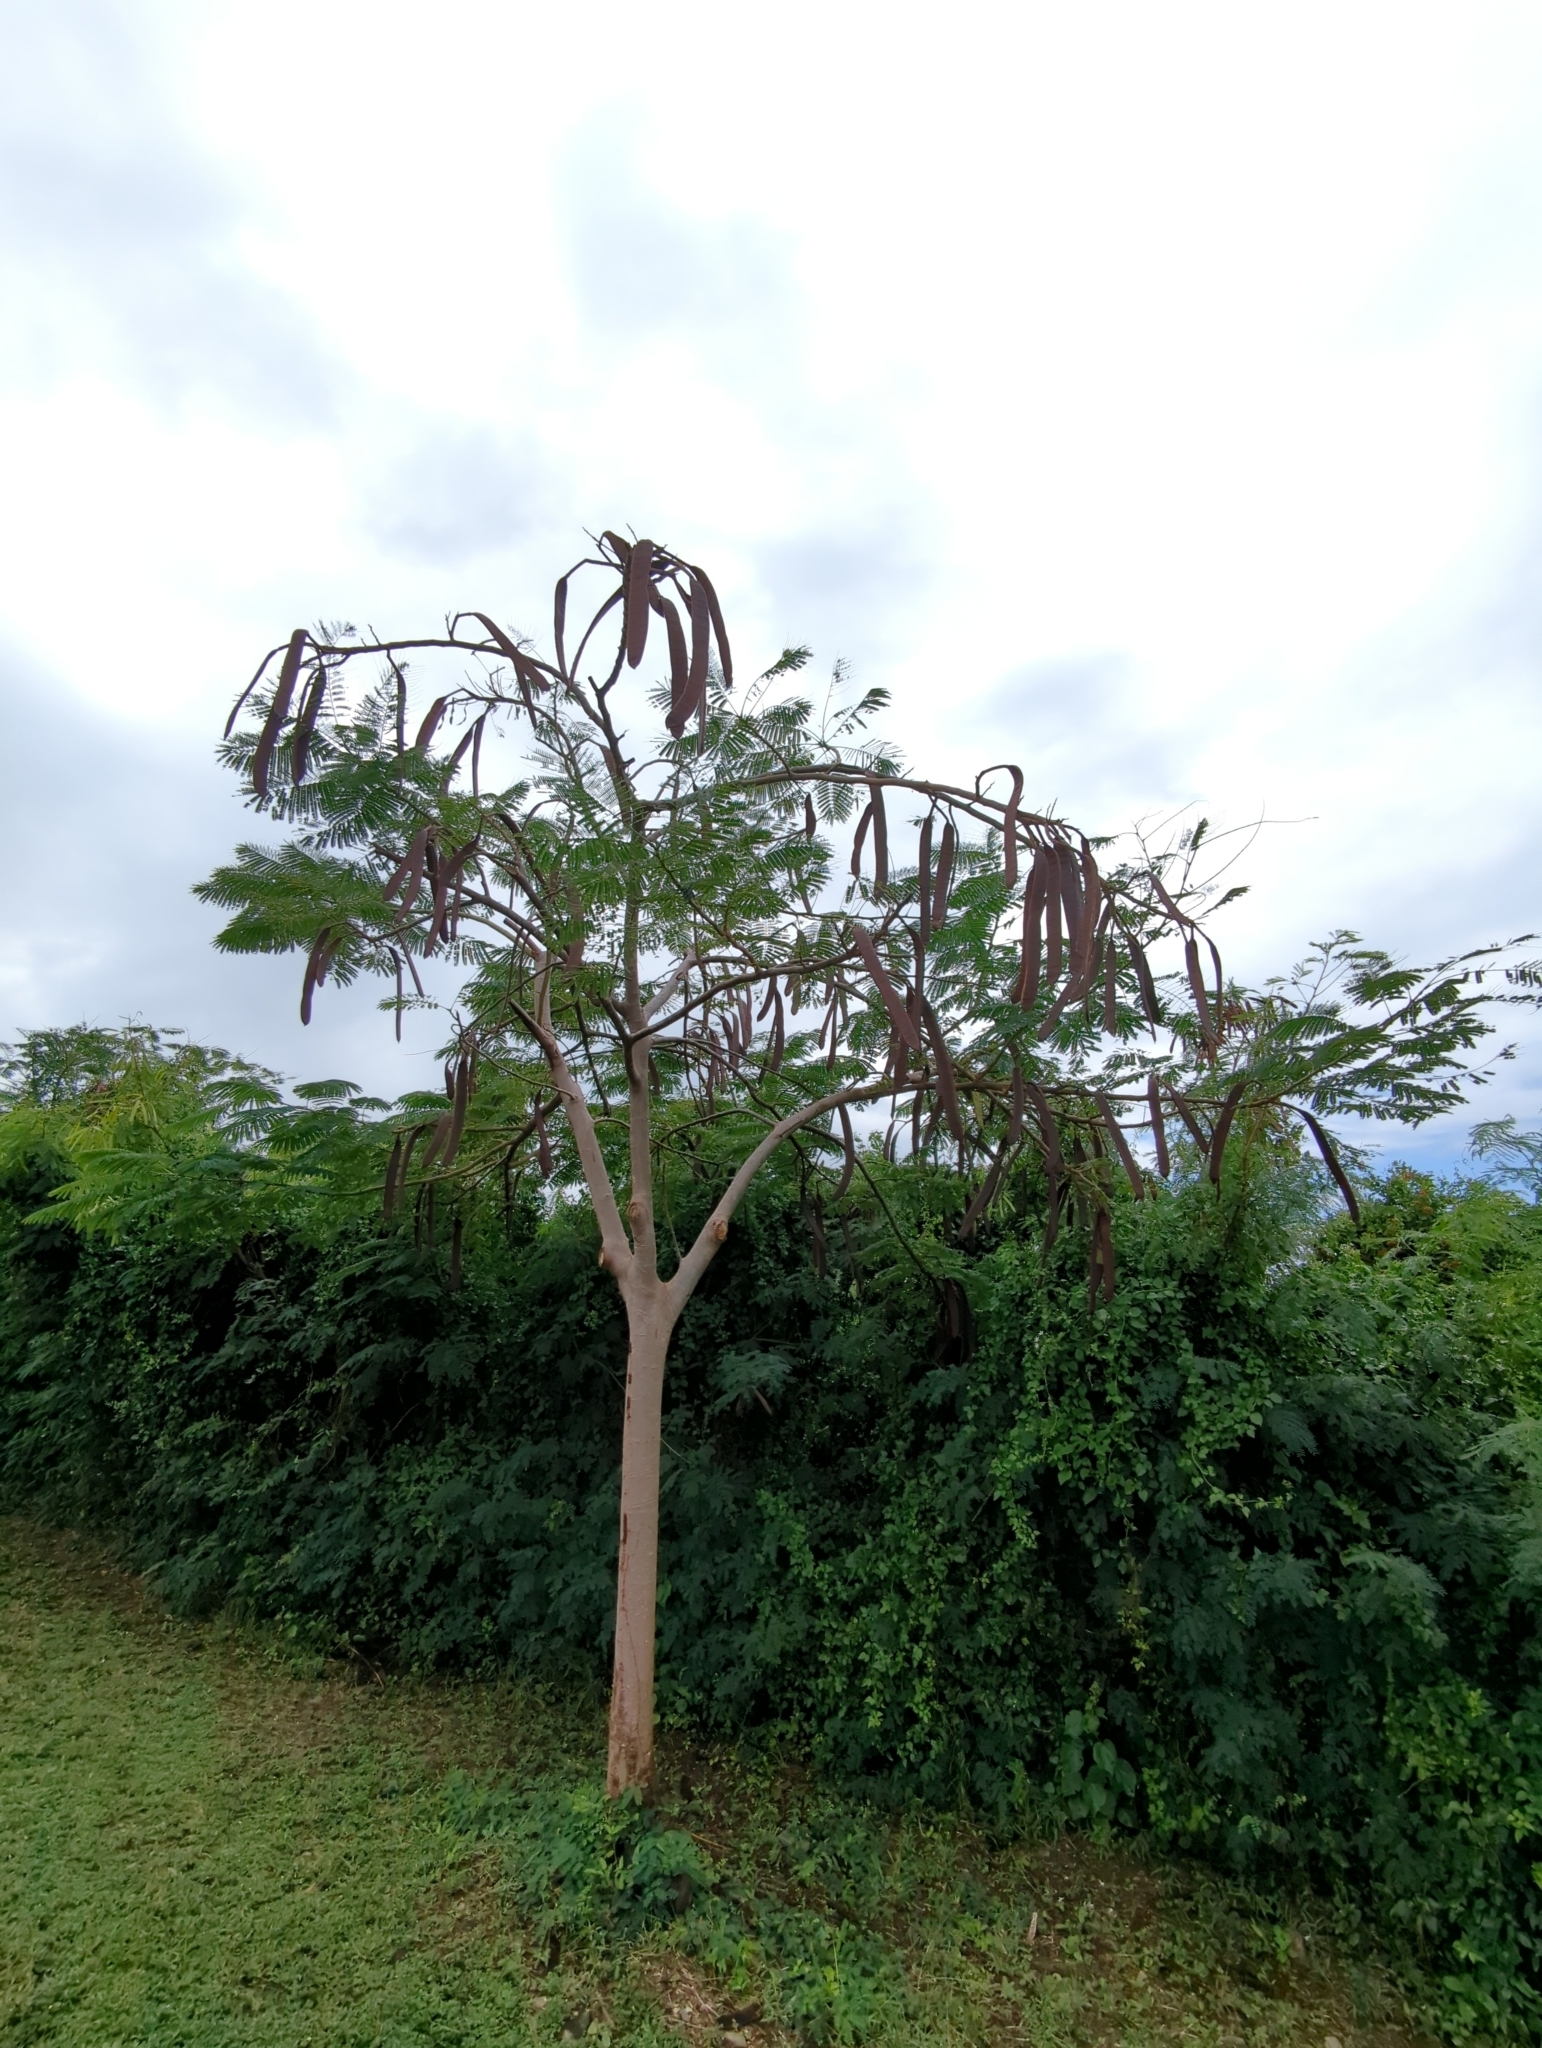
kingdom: Plantae
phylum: Tracheophyta
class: Magnoliopsida
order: Fabales
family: Fabaceae
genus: Delonix
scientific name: Delonix regia
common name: Royal poinciana
